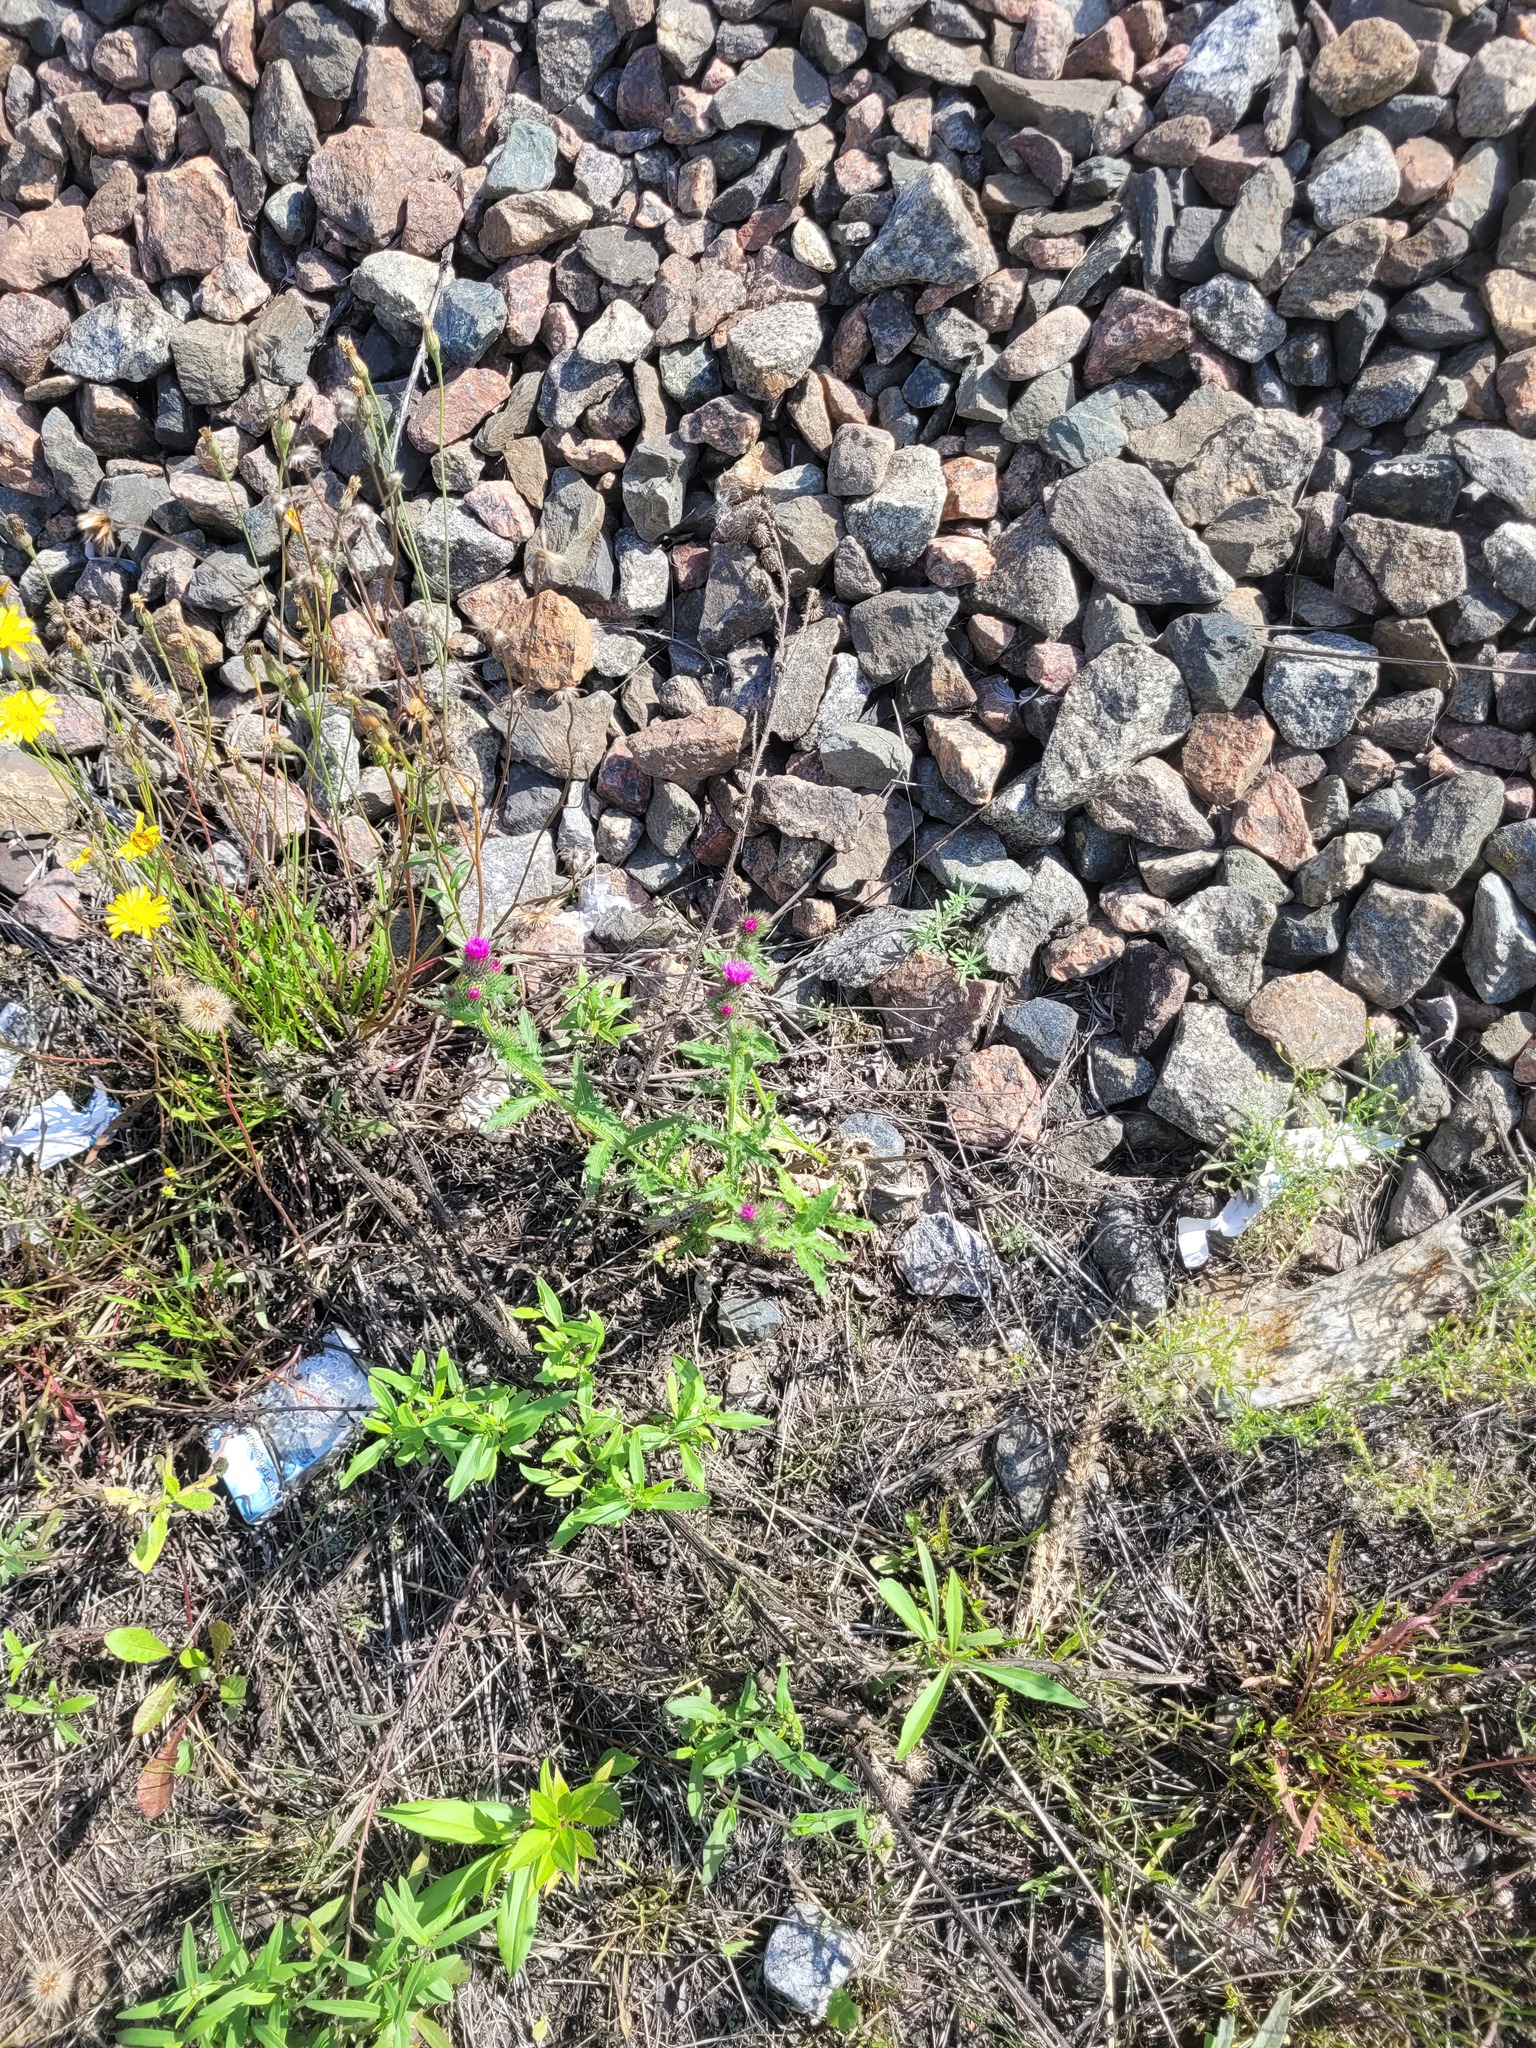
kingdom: Plantae
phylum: Tracheophyta
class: Magnoliopsida
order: Asterales
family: Asteraceae
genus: Carduus
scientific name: Carduus crispus
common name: Welted thistle
